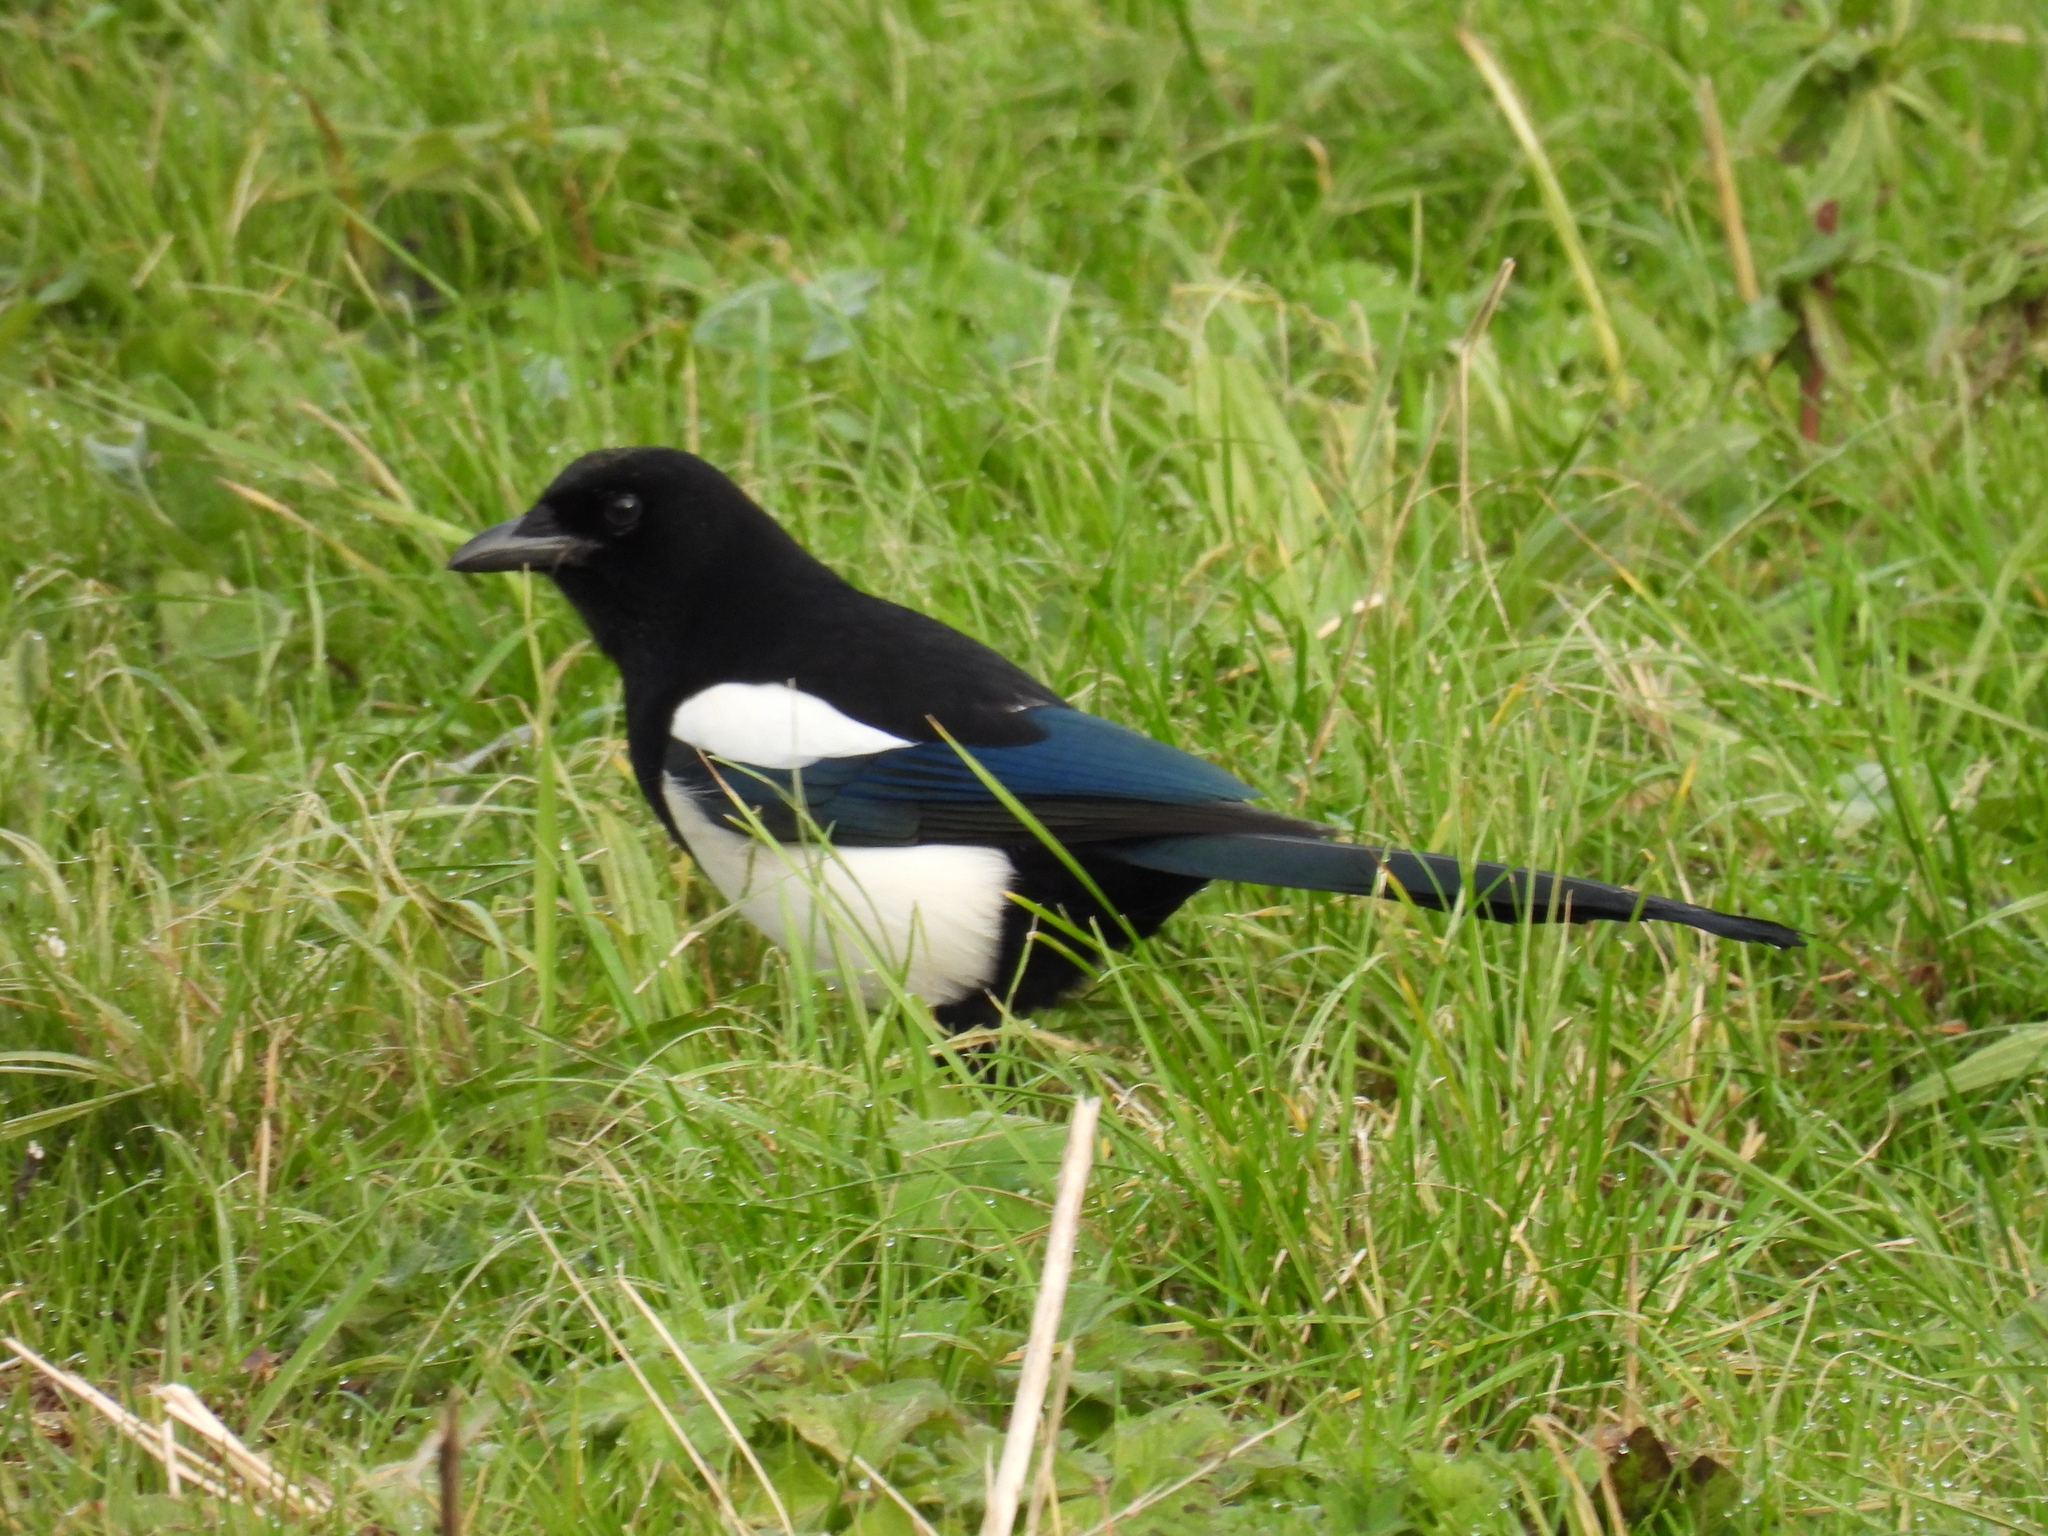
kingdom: Animalia
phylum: Chordata
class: Aves
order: Passeriformes
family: Corvidae
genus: Pica
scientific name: Pica pica
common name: Eurasian magpie
